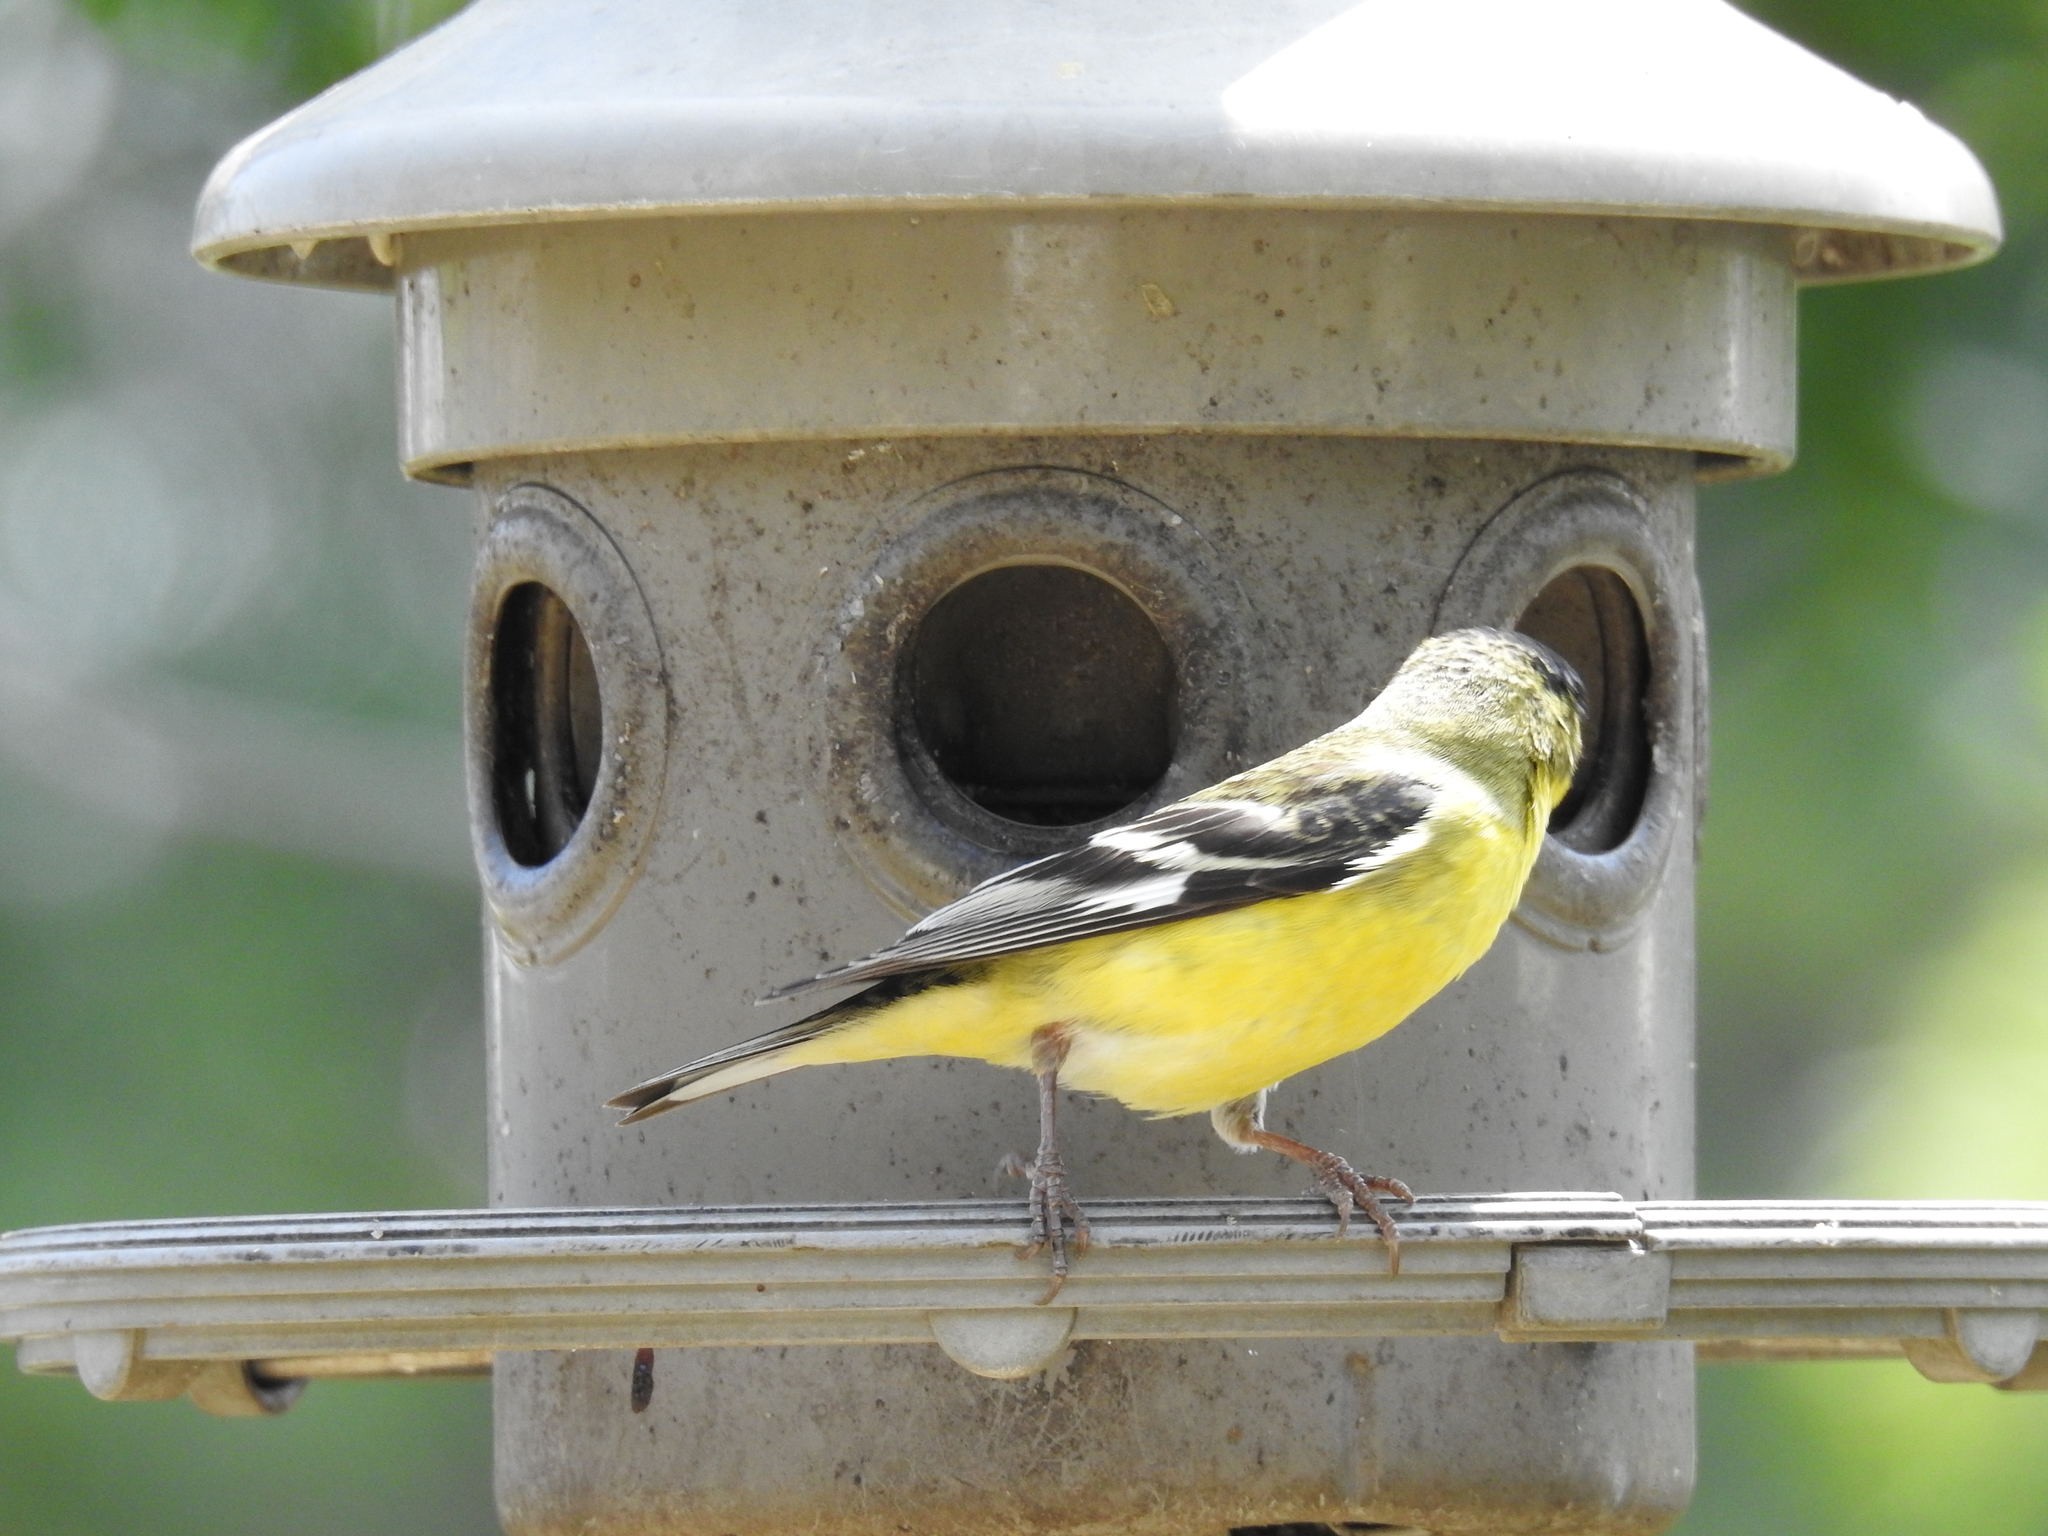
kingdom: Animalia
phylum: Chordata
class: Aves
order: Passeriformes
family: Fringillidae
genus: Spinus
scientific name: Spinus psaltria
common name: Lesser goldfinch
